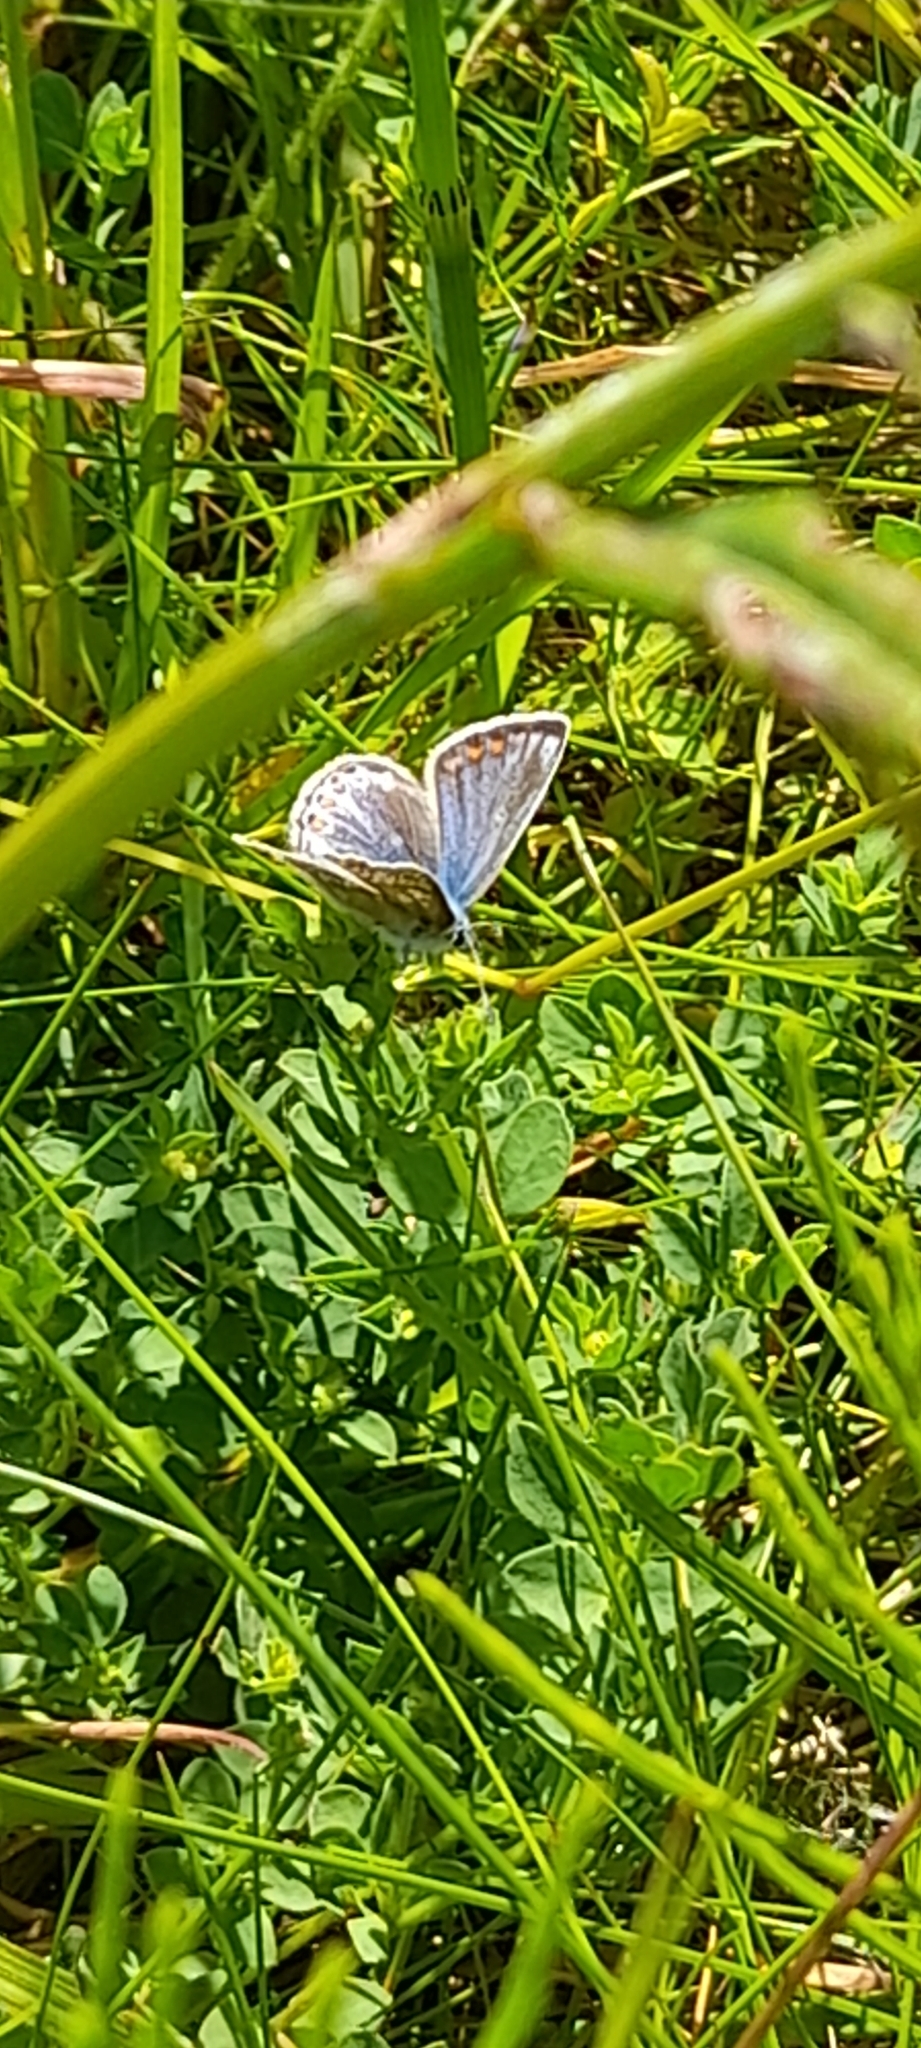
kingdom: Animalia
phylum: Arthropoda
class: Insecta
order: Lepidoptera
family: Lycaenidae
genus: Polyommatus
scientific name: Polyommatus icarus
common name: Common blue
